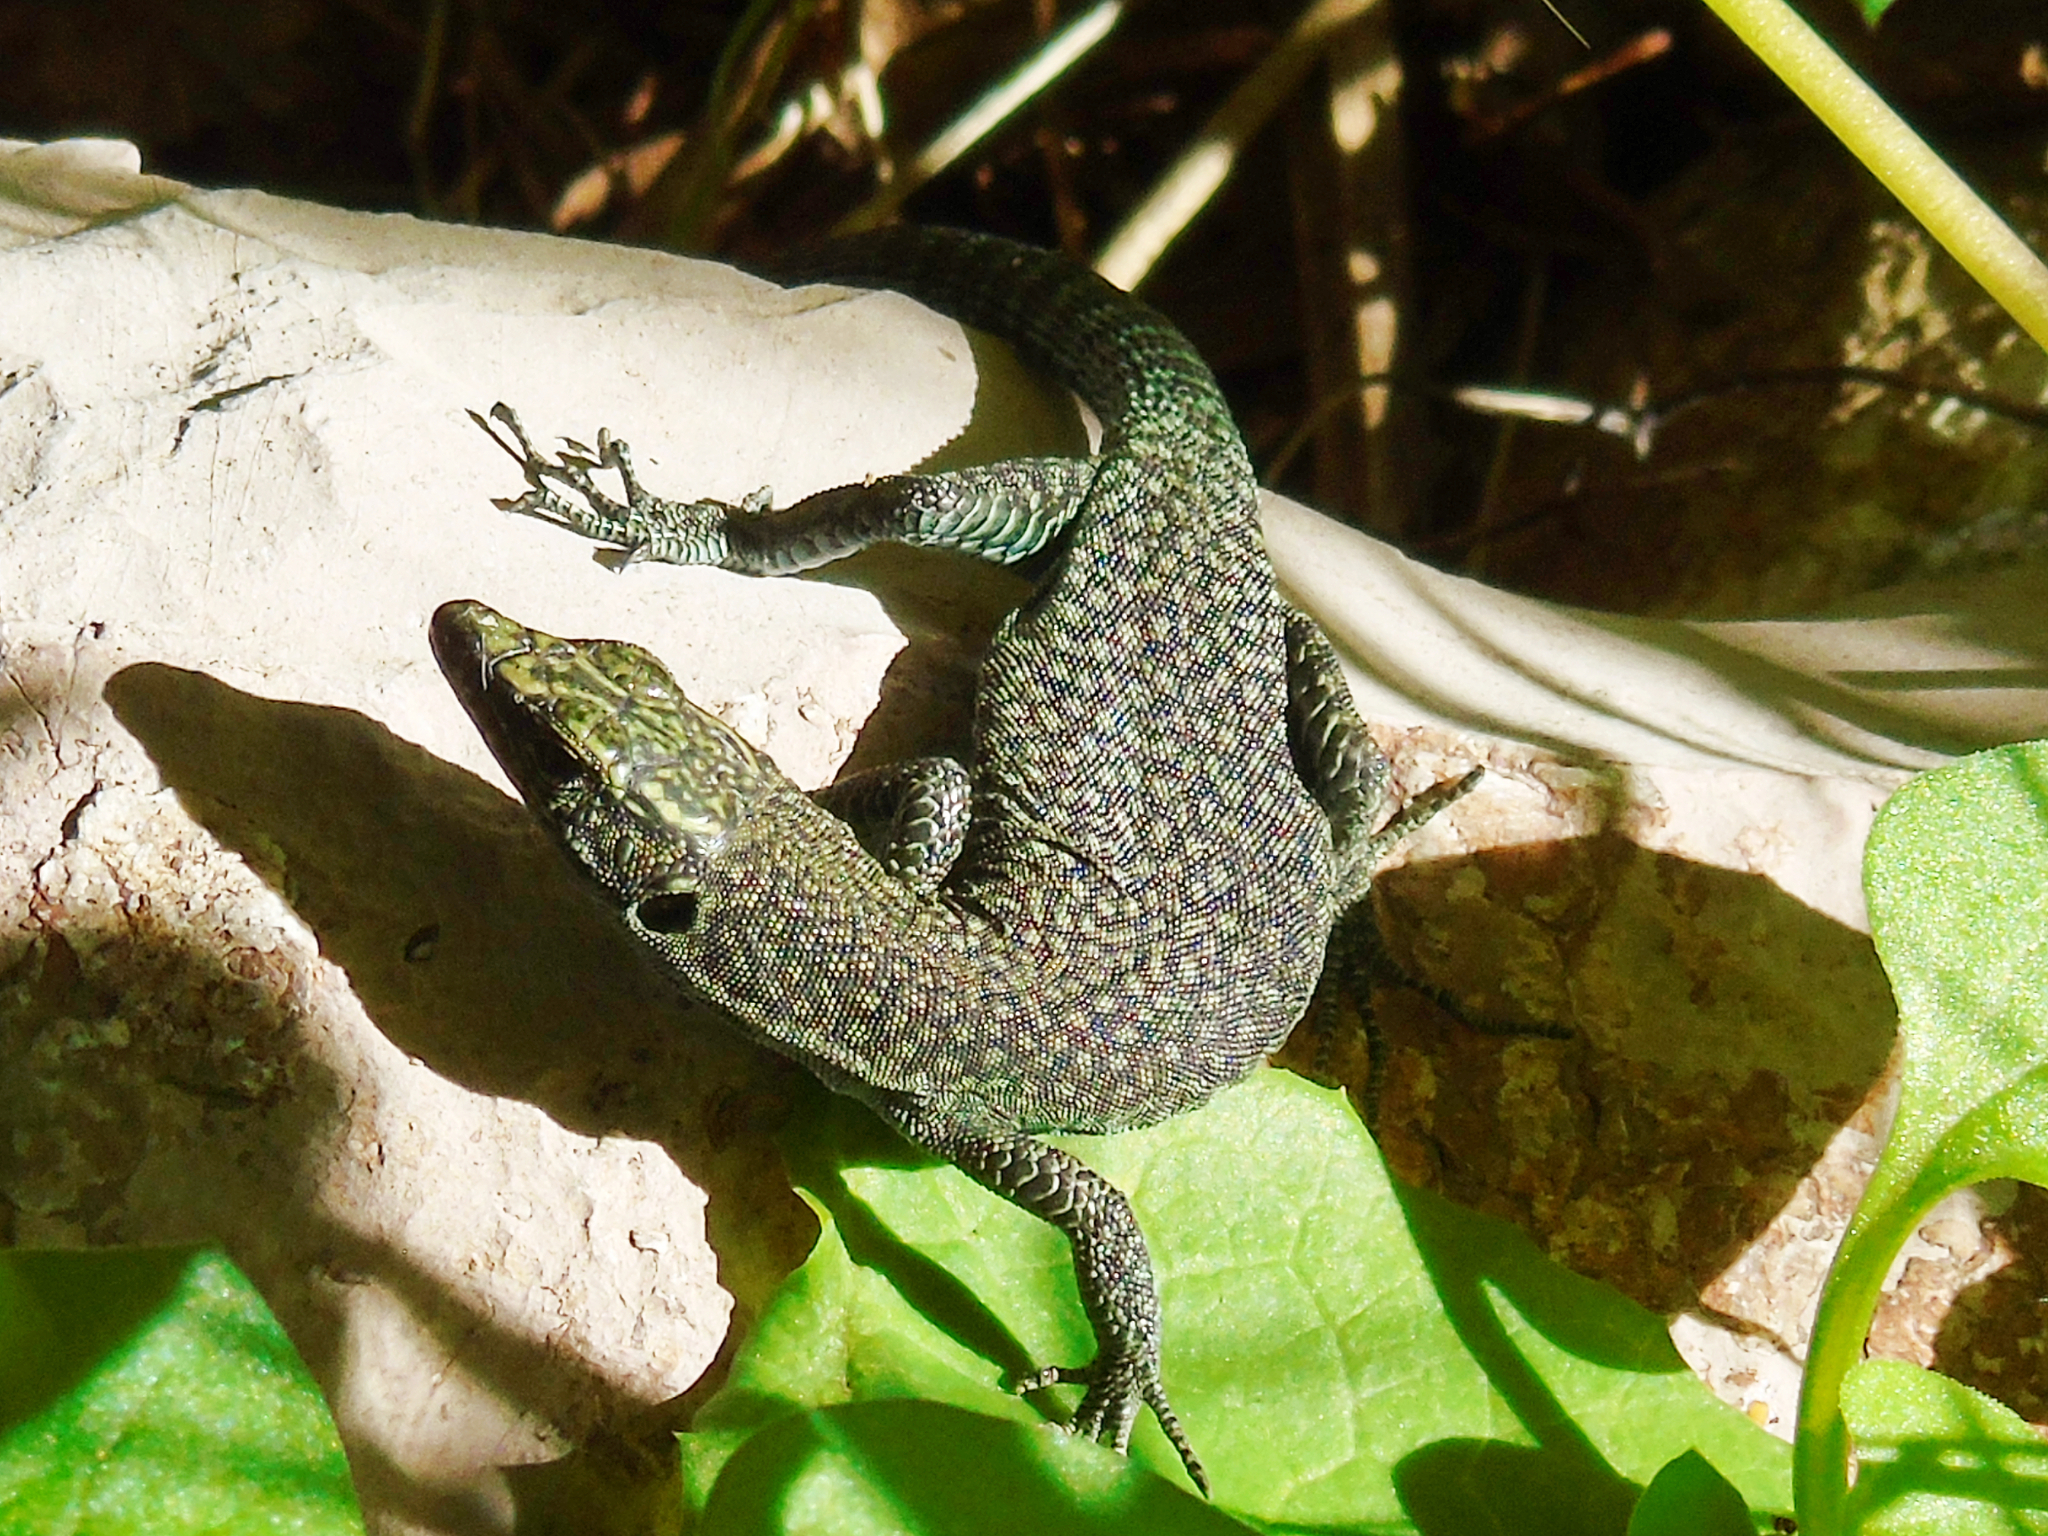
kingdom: Animalia
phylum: Chordata
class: Squamata
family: Lacertidae
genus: Dalmatolacerta
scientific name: Dalmatolacerta oxycephala
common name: Sharp-snouted rock lizard
